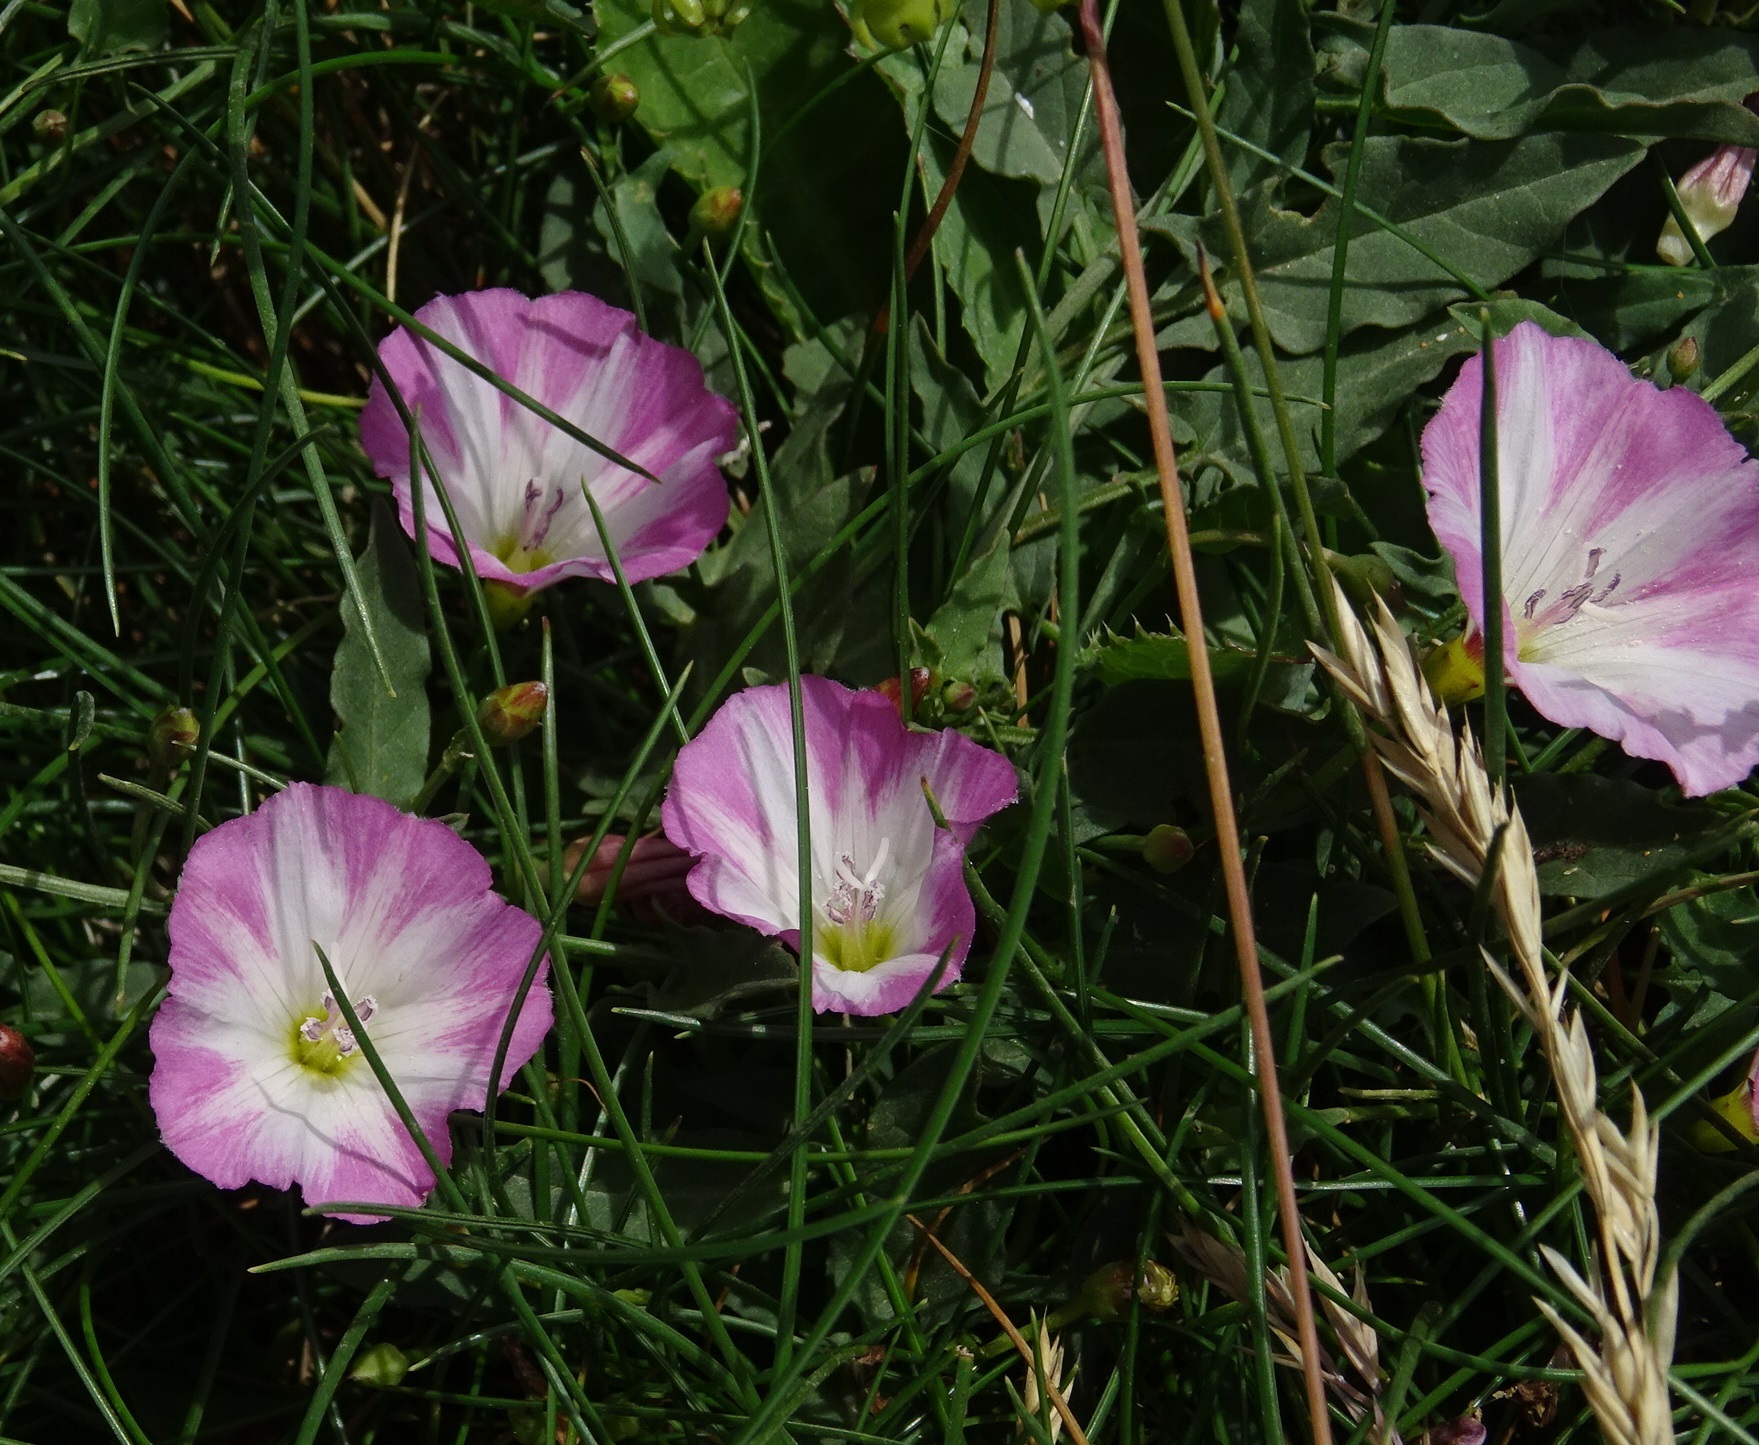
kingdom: Plantae
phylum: Tracheophyta
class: Magnoliopsida
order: Solanales
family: Convolvulaceae
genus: Convolvulus
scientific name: Convolvulus arvensis
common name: Field bindweed
